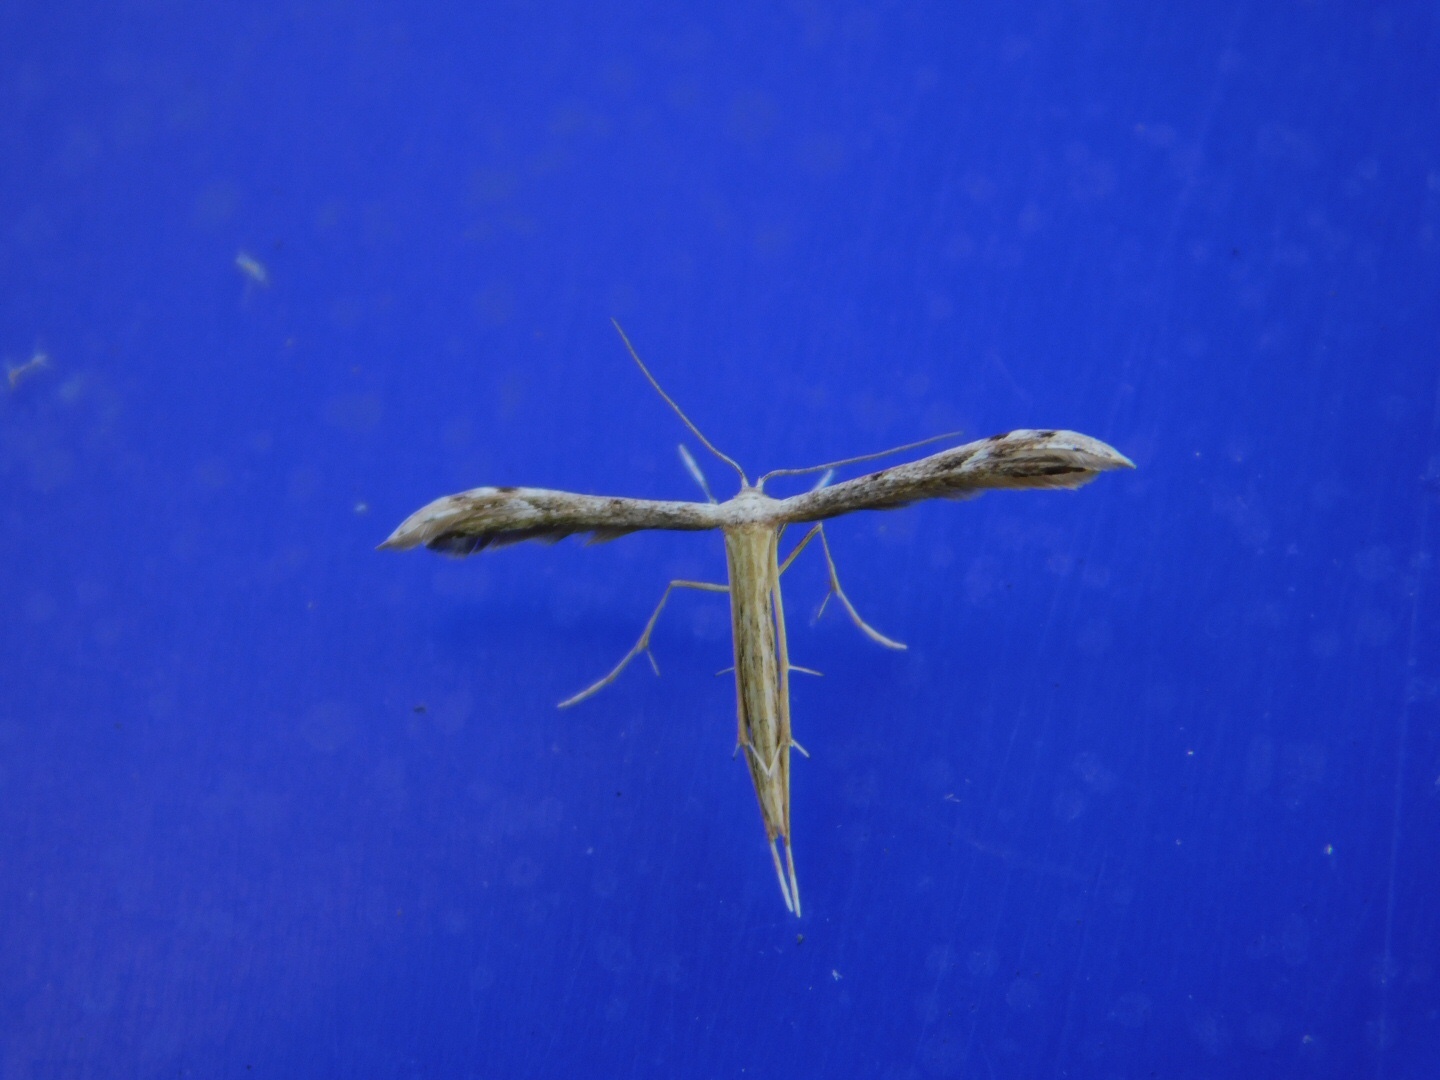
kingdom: Animalia
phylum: Arthropoda
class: Insecta
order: Lepidoptera
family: Pterophoridae
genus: Pselnophorus
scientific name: Pselnophorus belfragei
